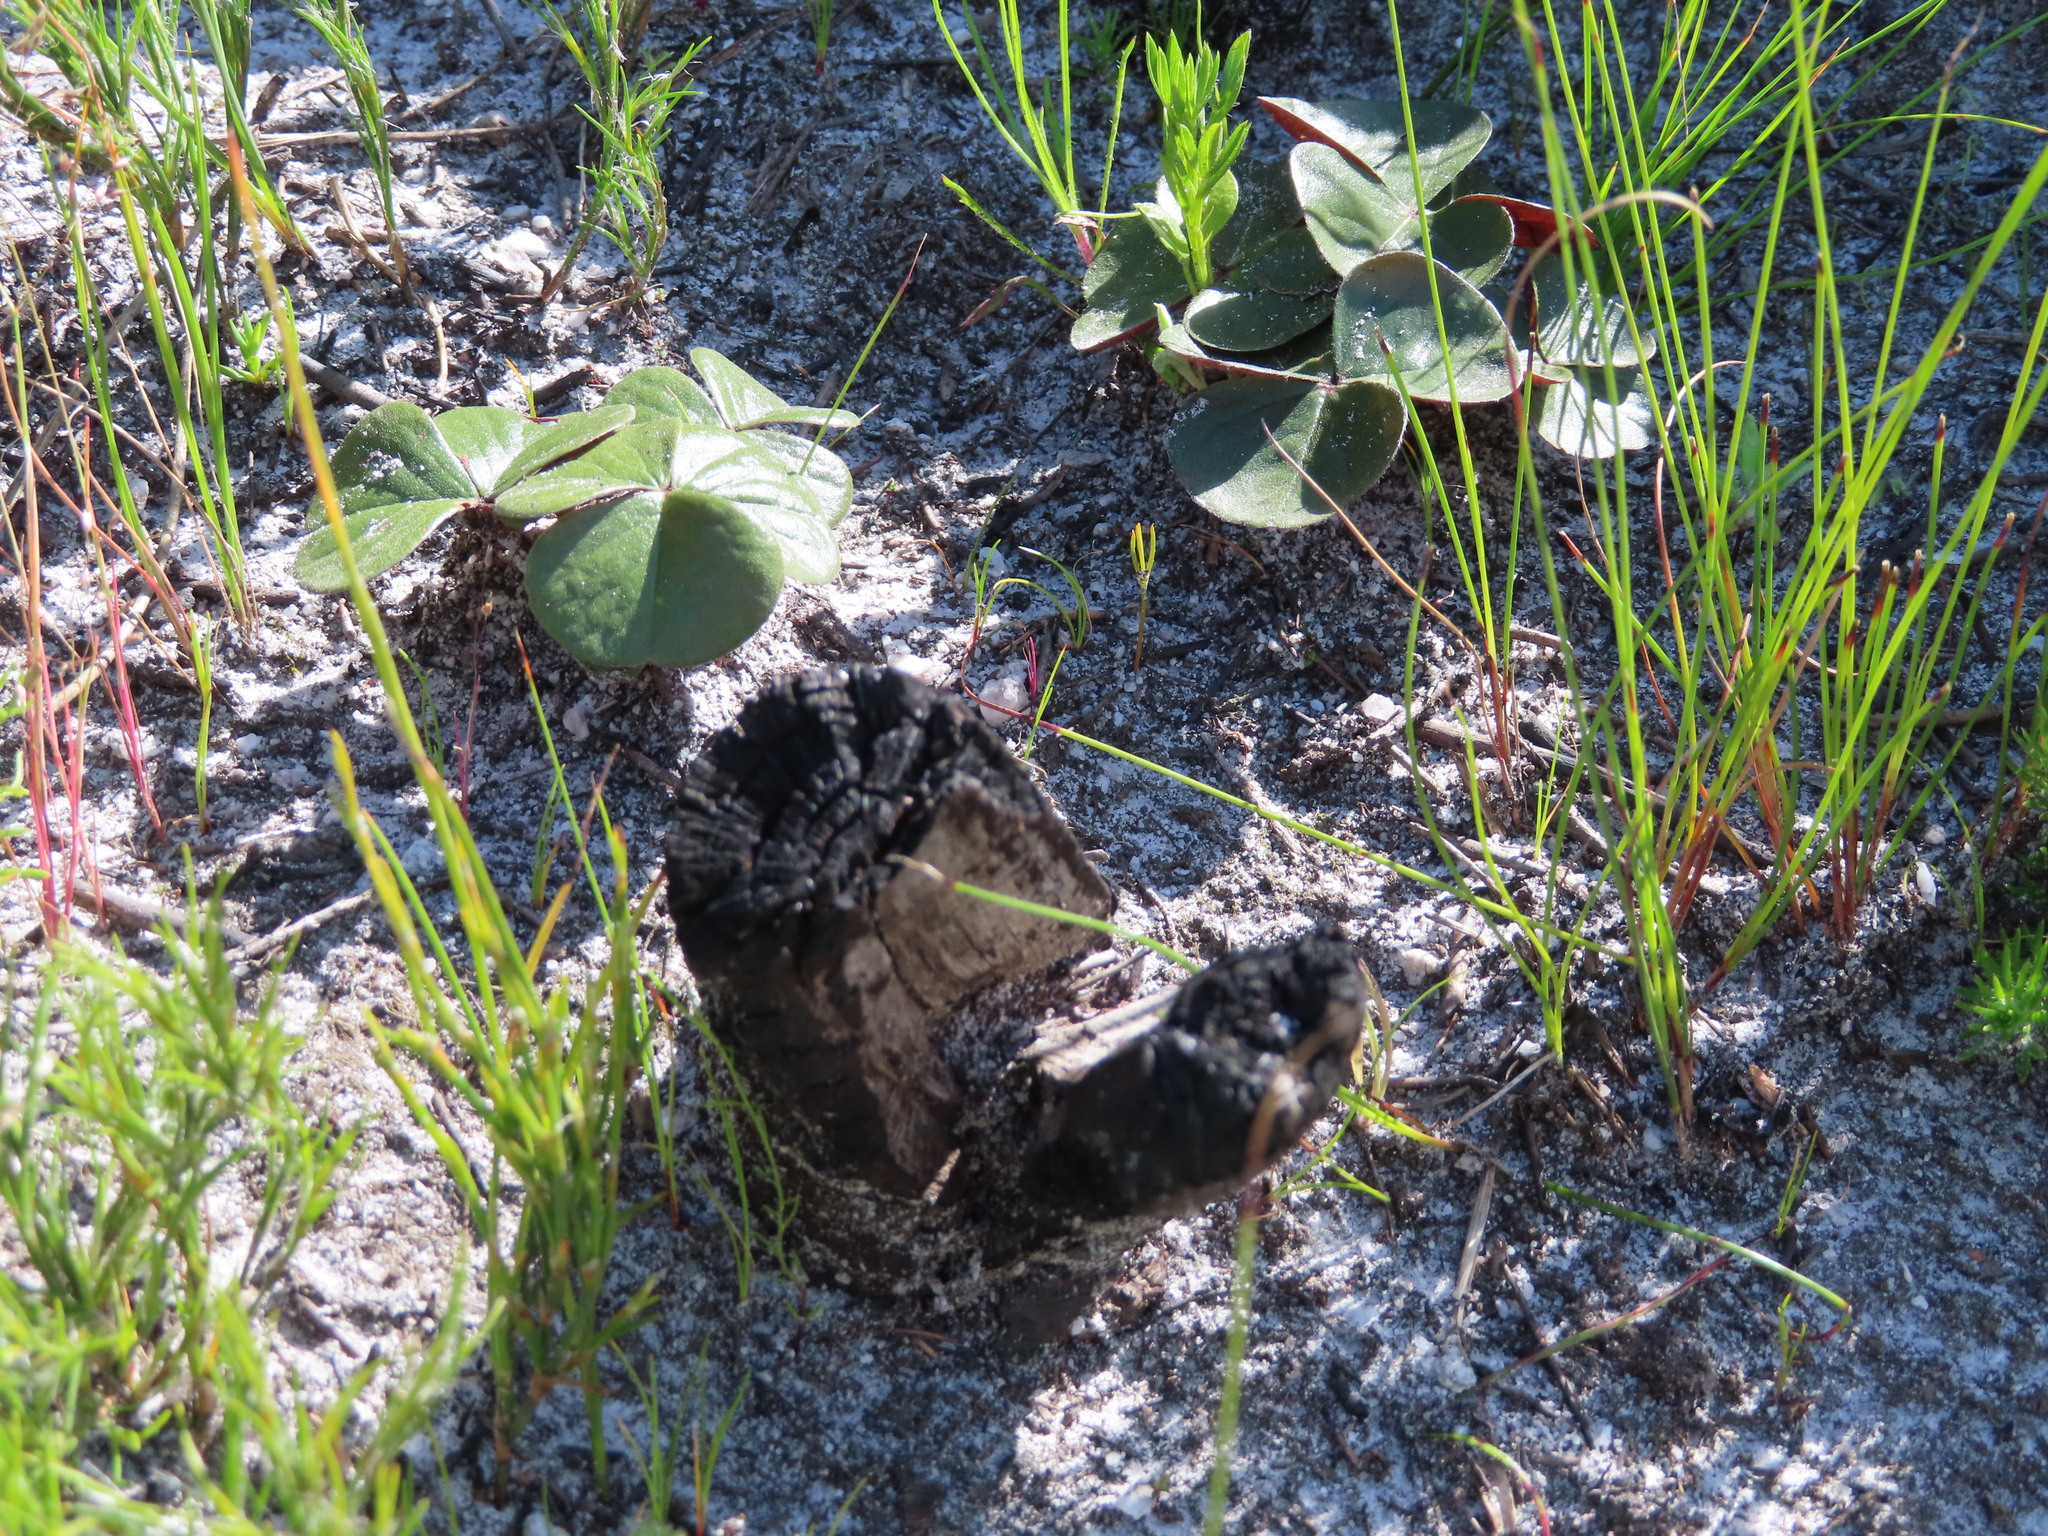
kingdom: Plantae
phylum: Tracheophyta
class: Magnoliopsida
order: Oxalidales
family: Oxalidaceae
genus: Oxalis
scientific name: Oxalis truncatula
